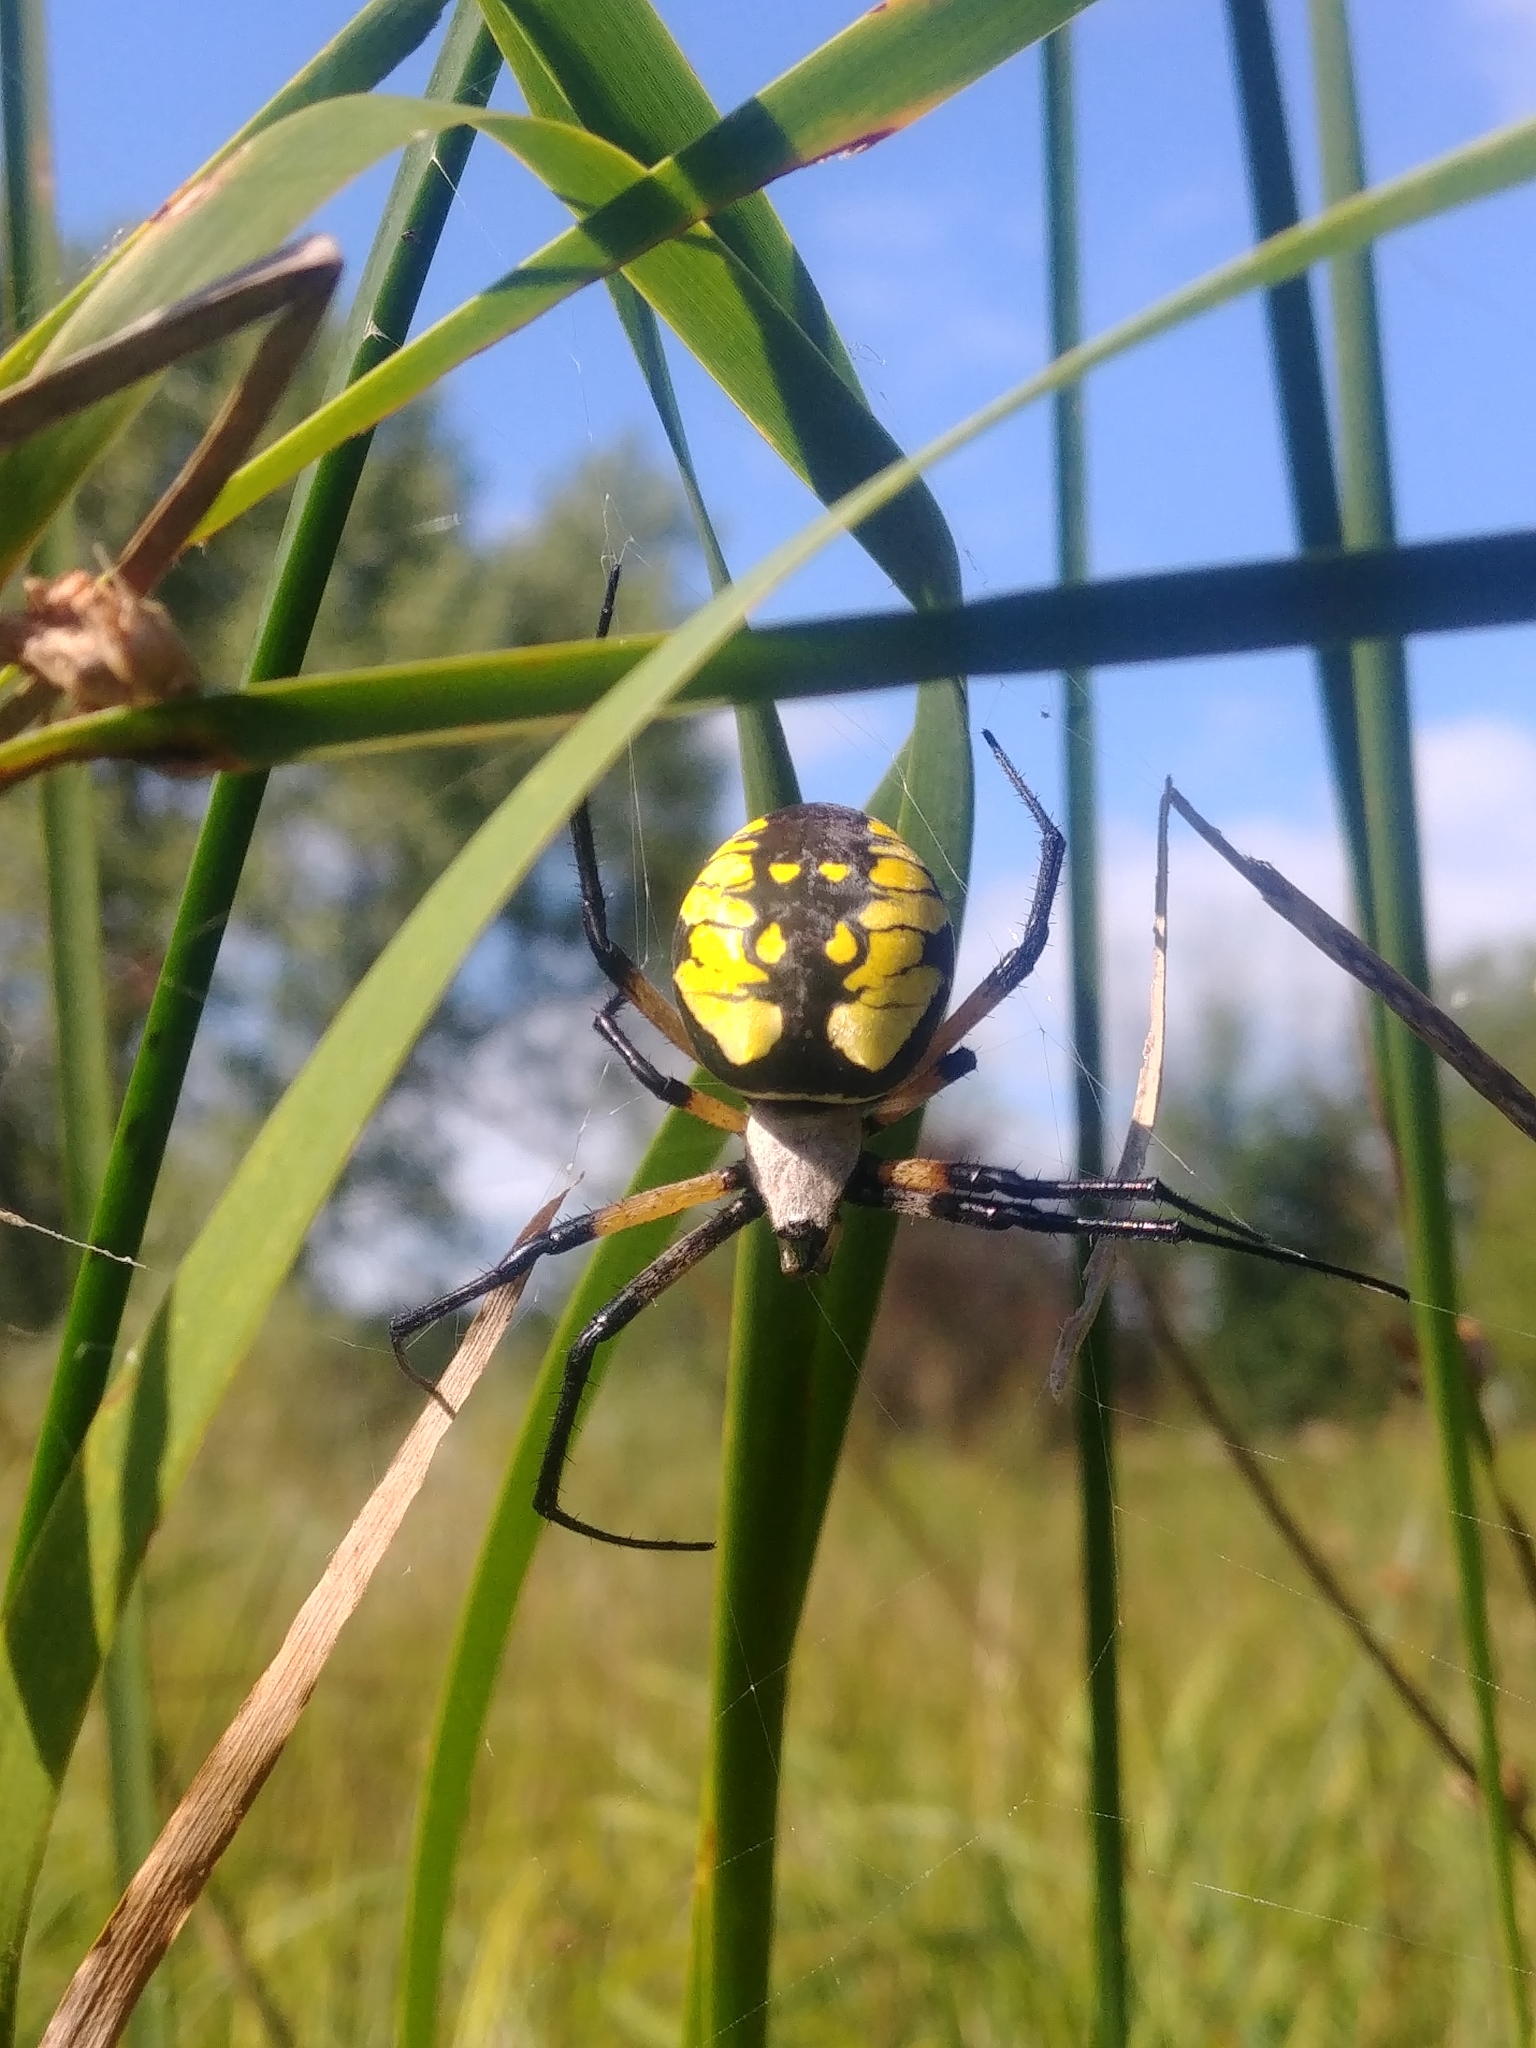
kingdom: Animalia
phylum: Arthropoda
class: Arachnida
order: Araneae
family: Araneidae
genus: Argiope
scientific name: Argiope aurantia
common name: Orb weavers
